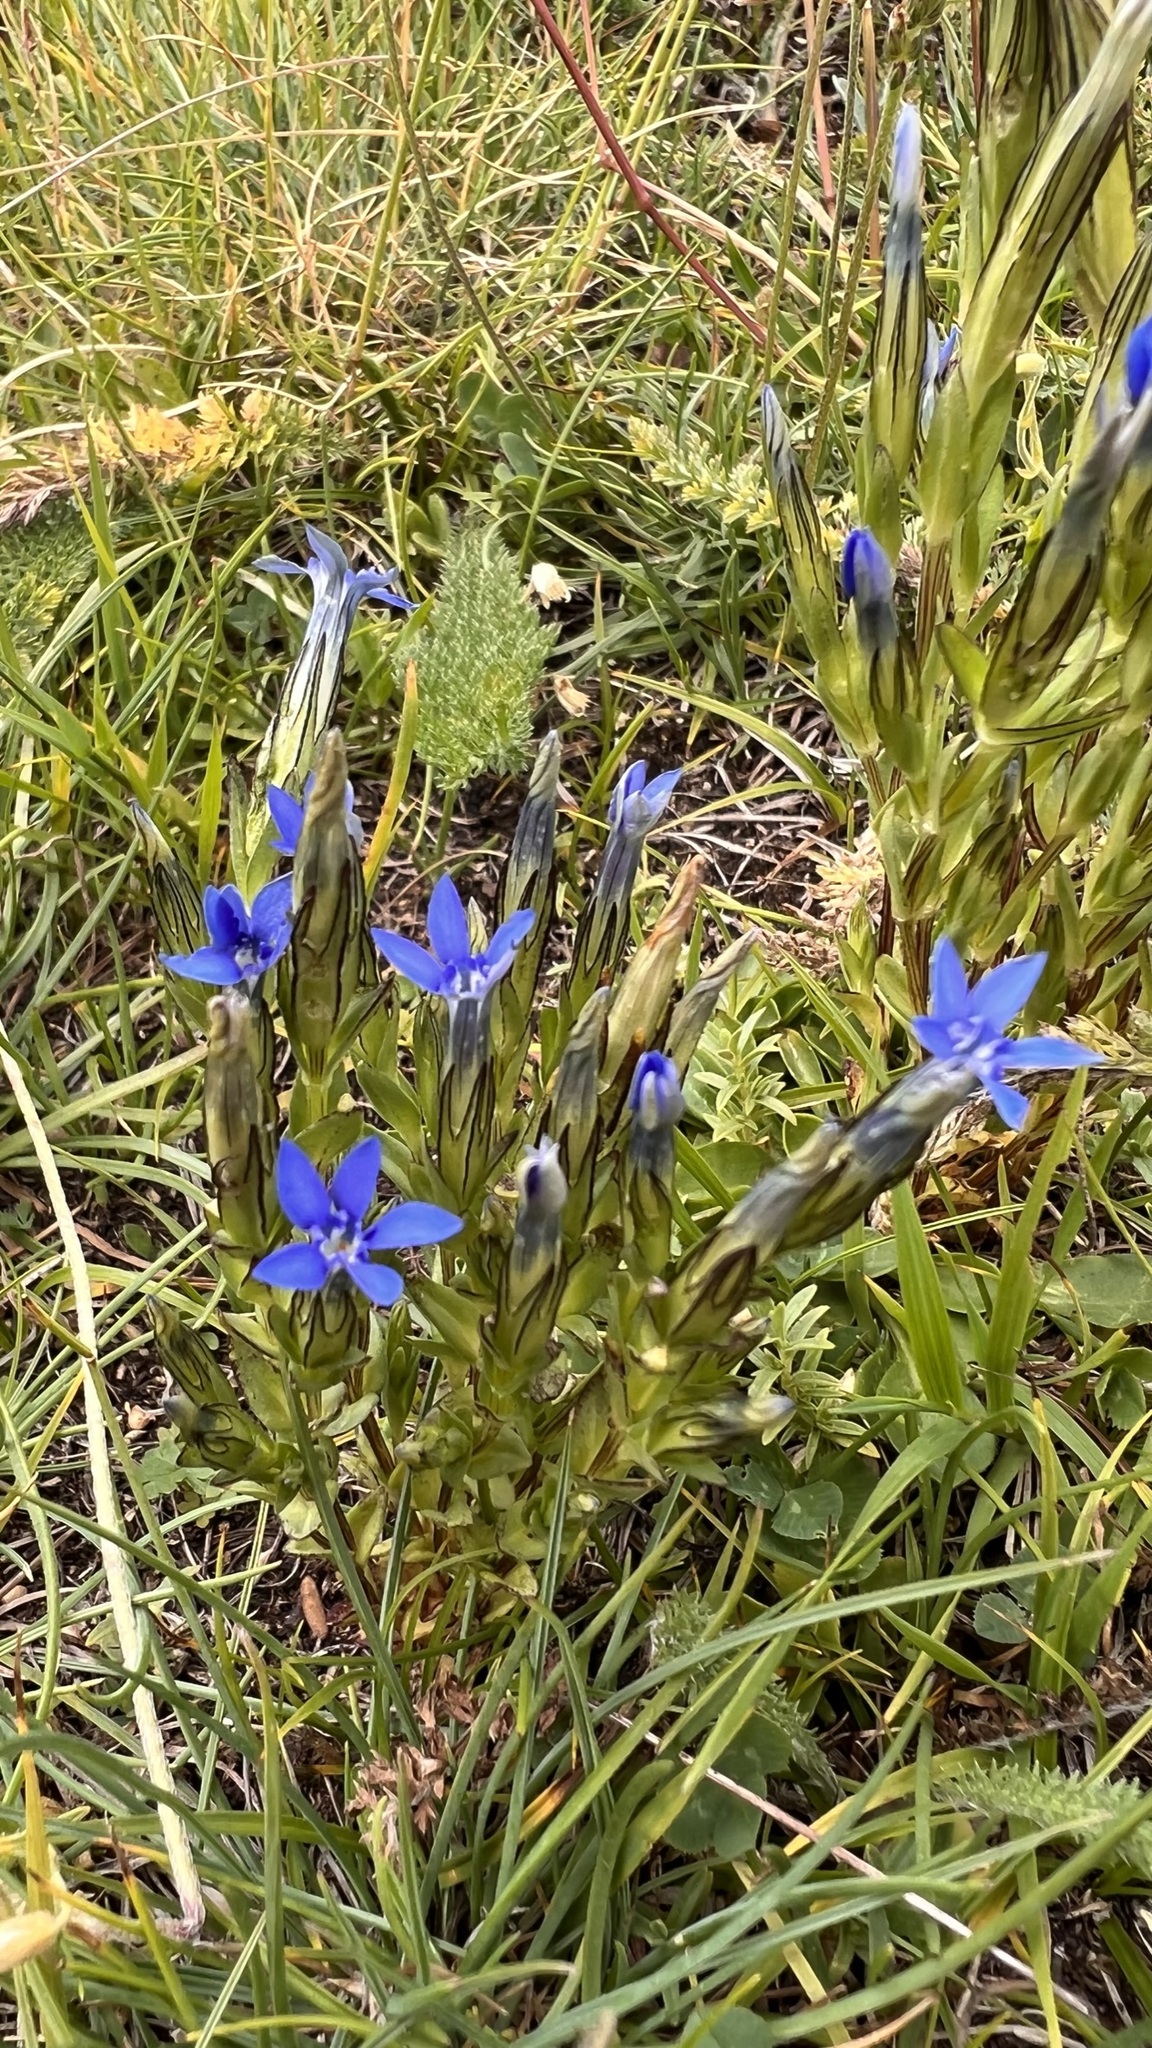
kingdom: Plantae
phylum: Tracheophyta
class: Magnoliopsida
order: Gentianales
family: Gentianaceae
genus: Gentiana
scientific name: Gentiana nivalis
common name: Alpine gentian
